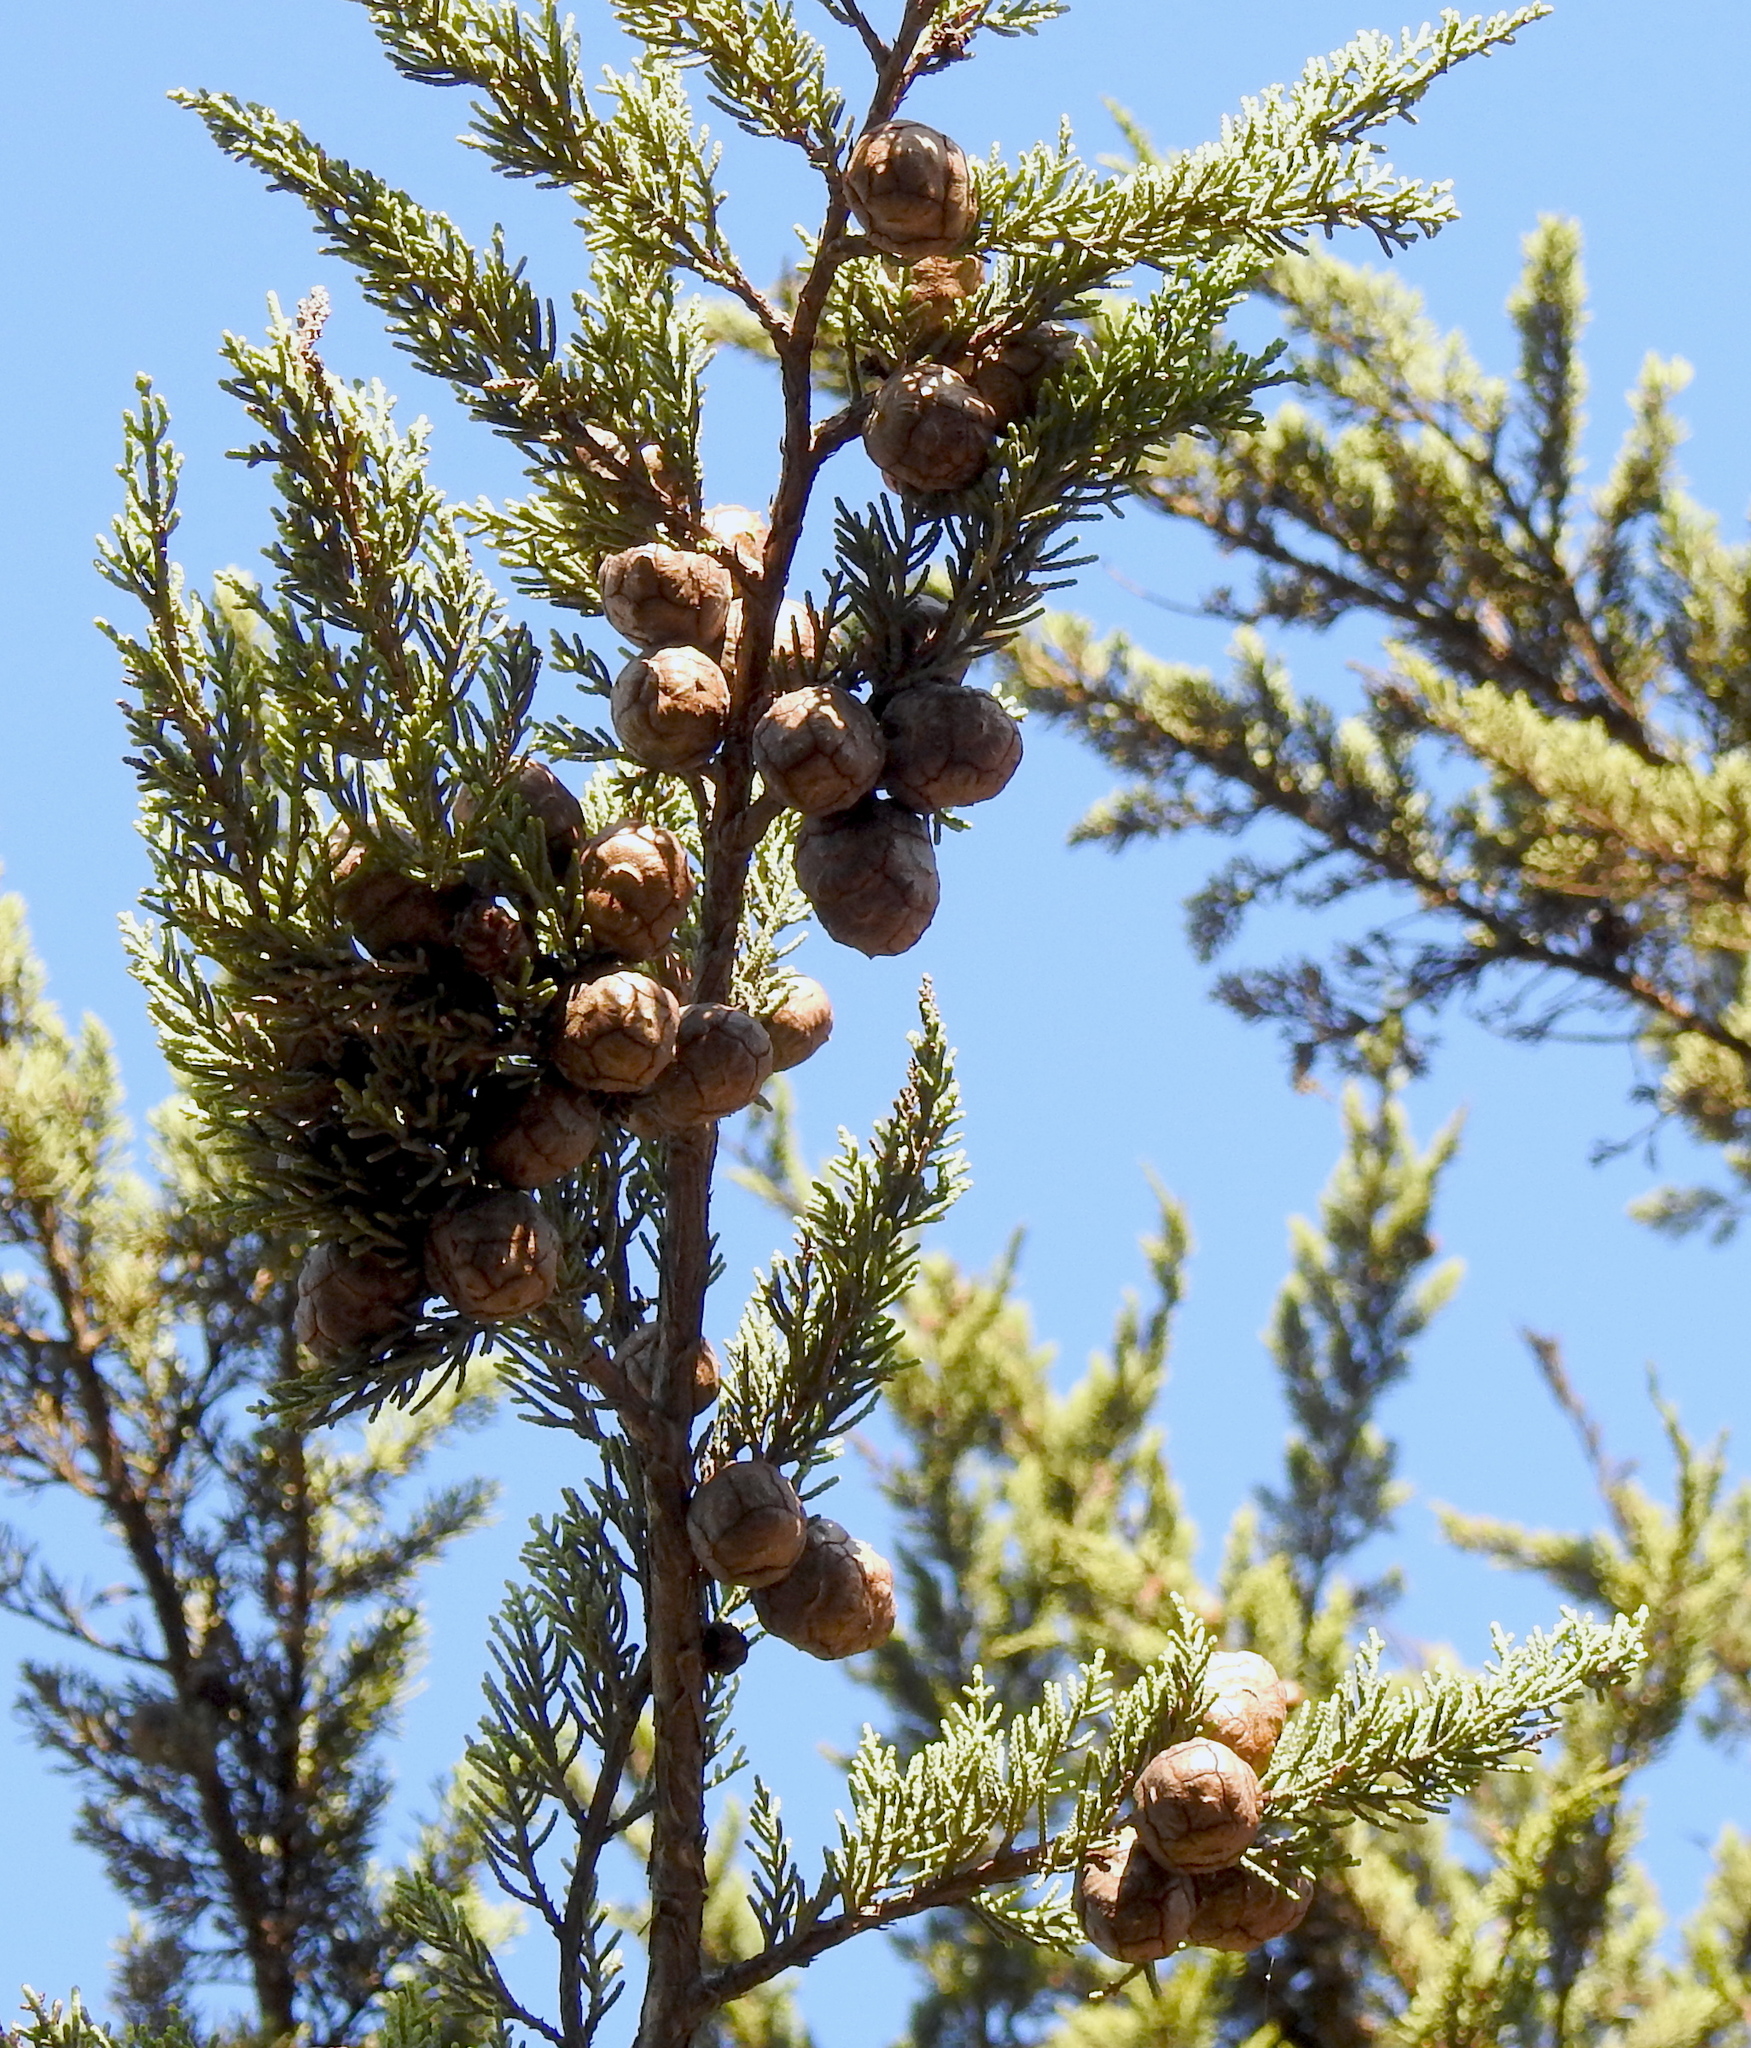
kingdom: Plantae
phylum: Tracheophyta
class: Pinopsida
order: Pinales
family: Cupressaceae
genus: Cupressus
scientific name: Cupressus macrocarpa
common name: Monterey cypress
